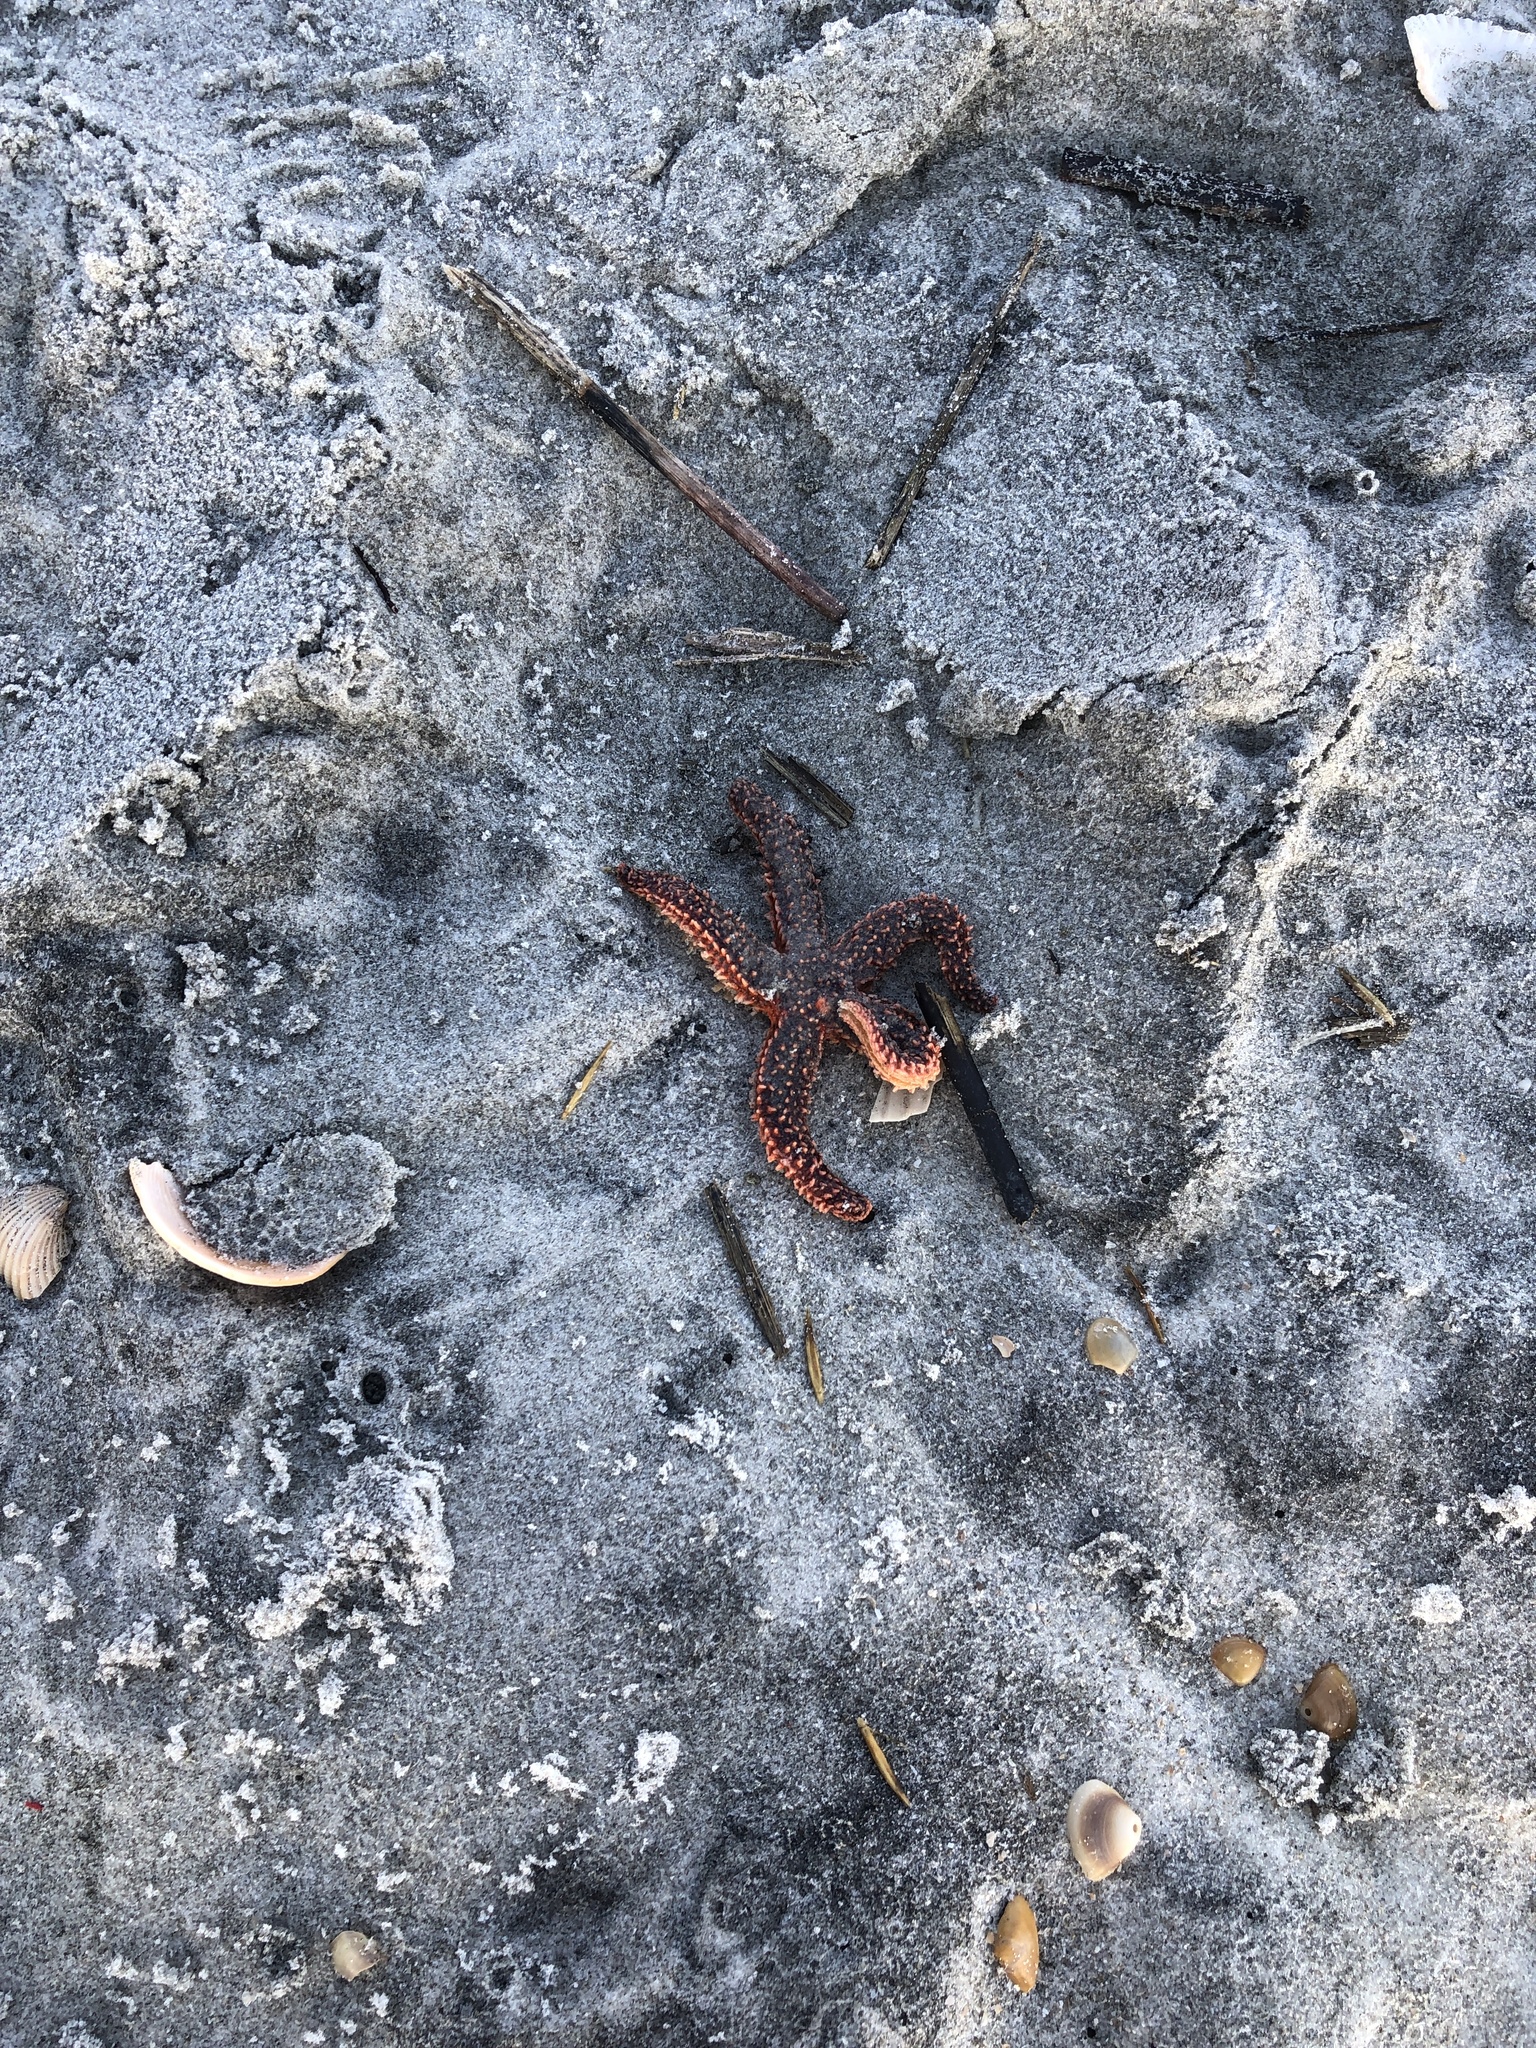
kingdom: Animalia
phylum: Echinodermata
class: Asteroidea
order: Forcipulatida
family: Asteriidae
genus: Asterias
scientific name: Asterias forbesi
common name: Forbes's sea star
